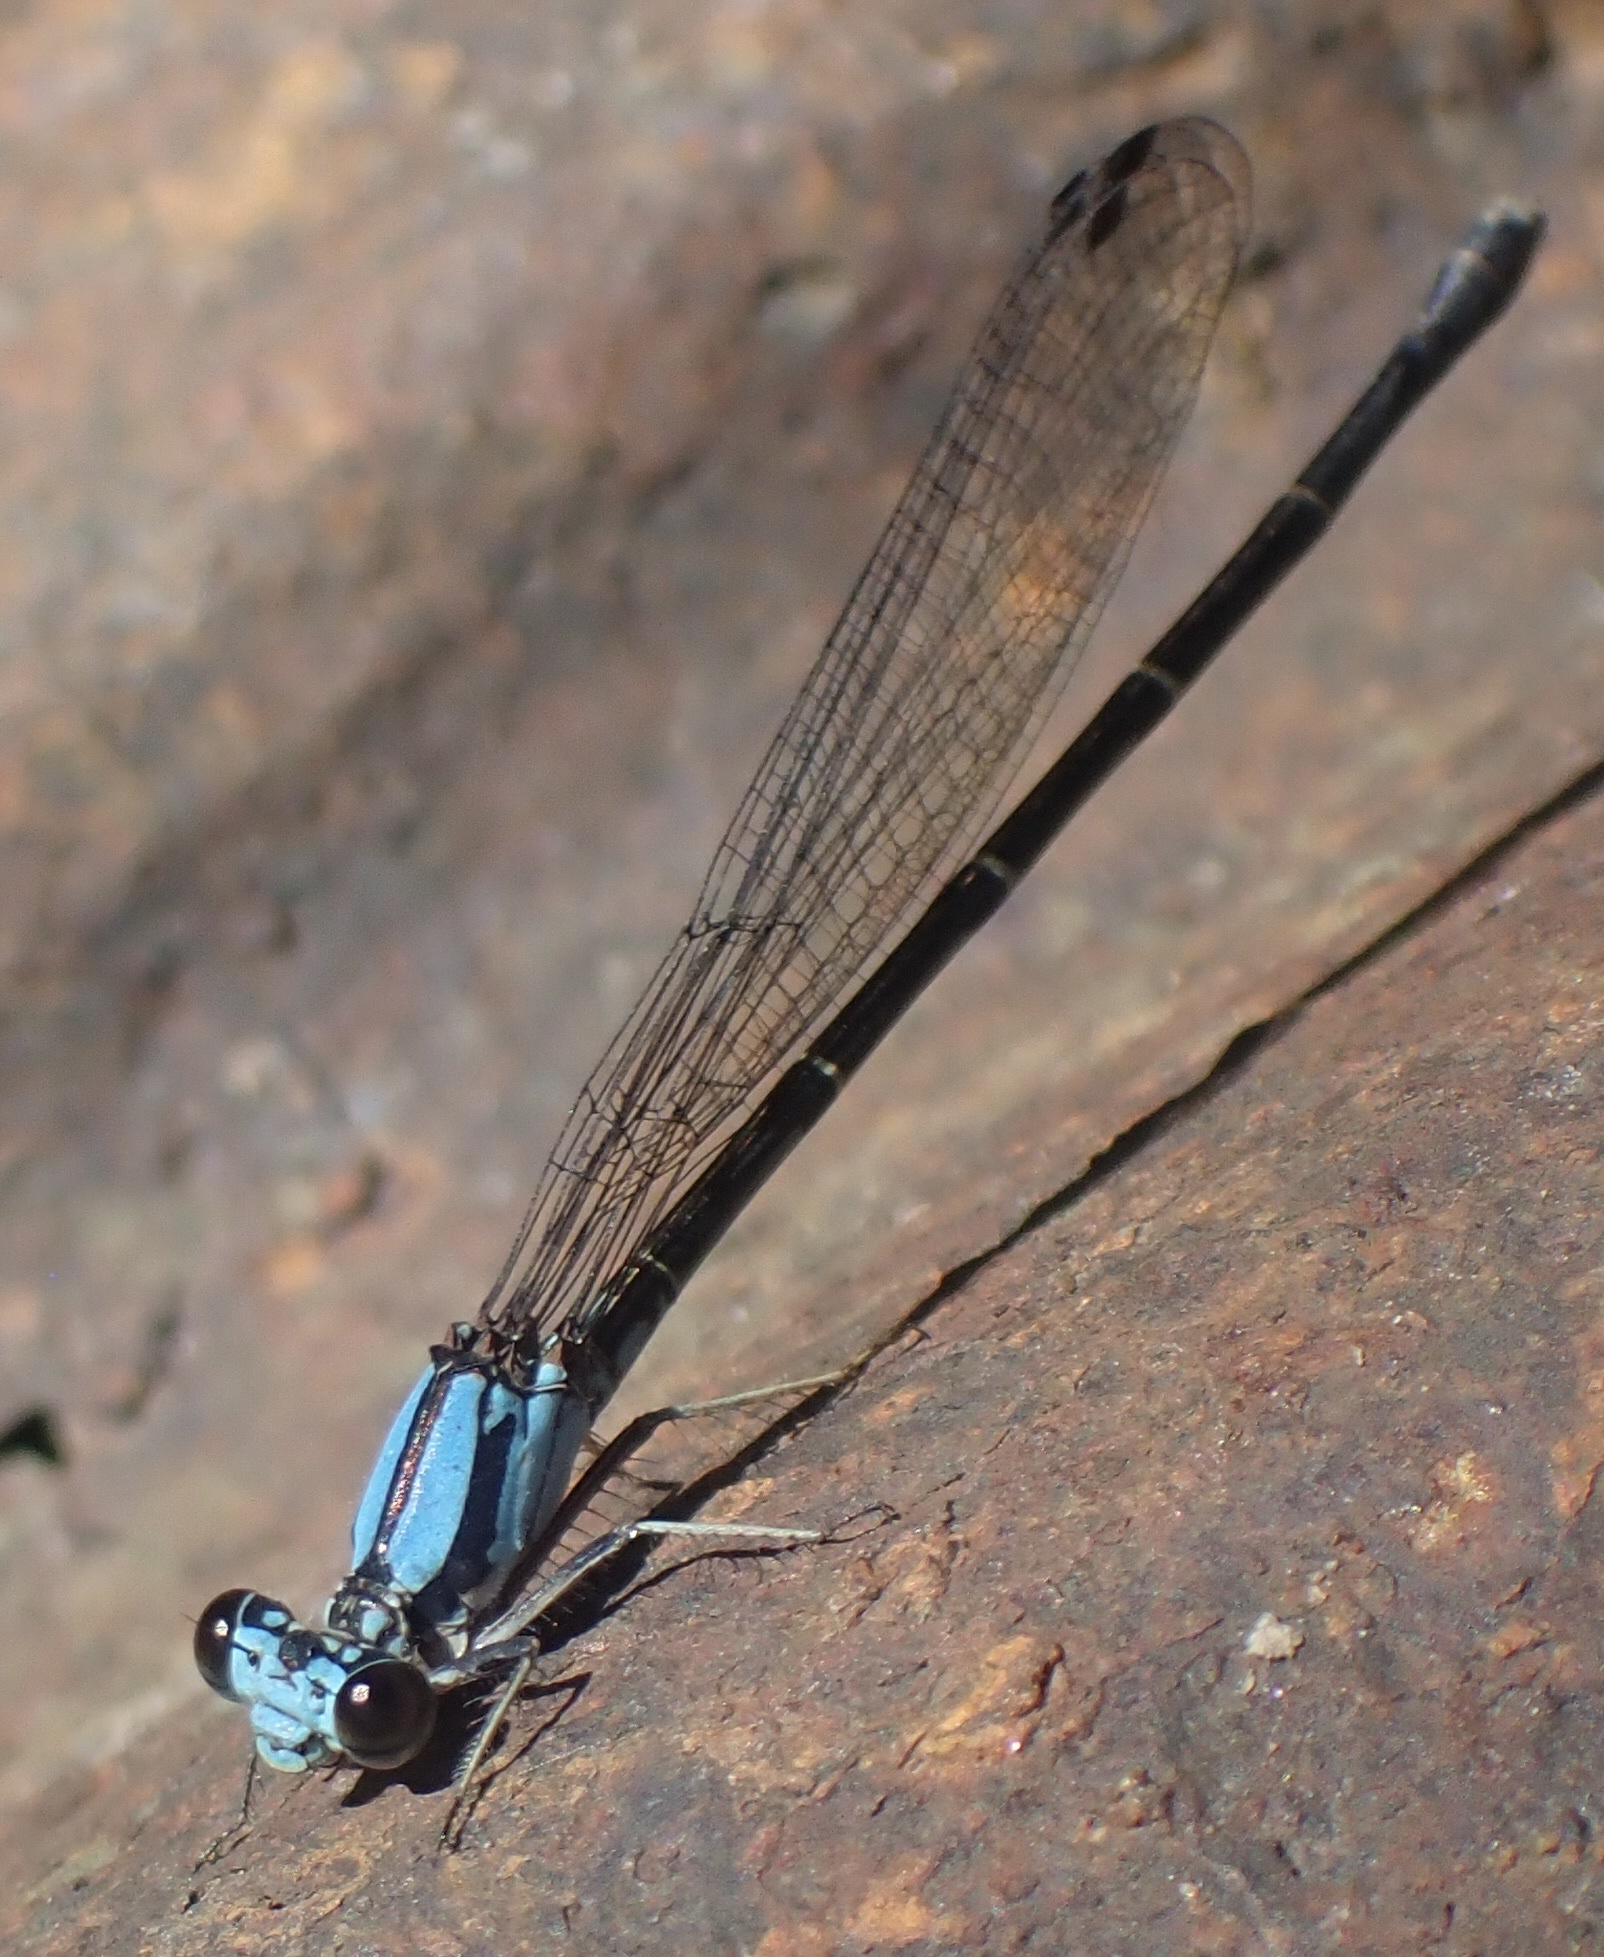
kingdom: Animalia
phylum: Arthropoda
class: Insecta
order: Odonata
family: Coenagrionidae
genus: Argia
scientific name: Argia tibialis
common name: Blue-tipped dancer
